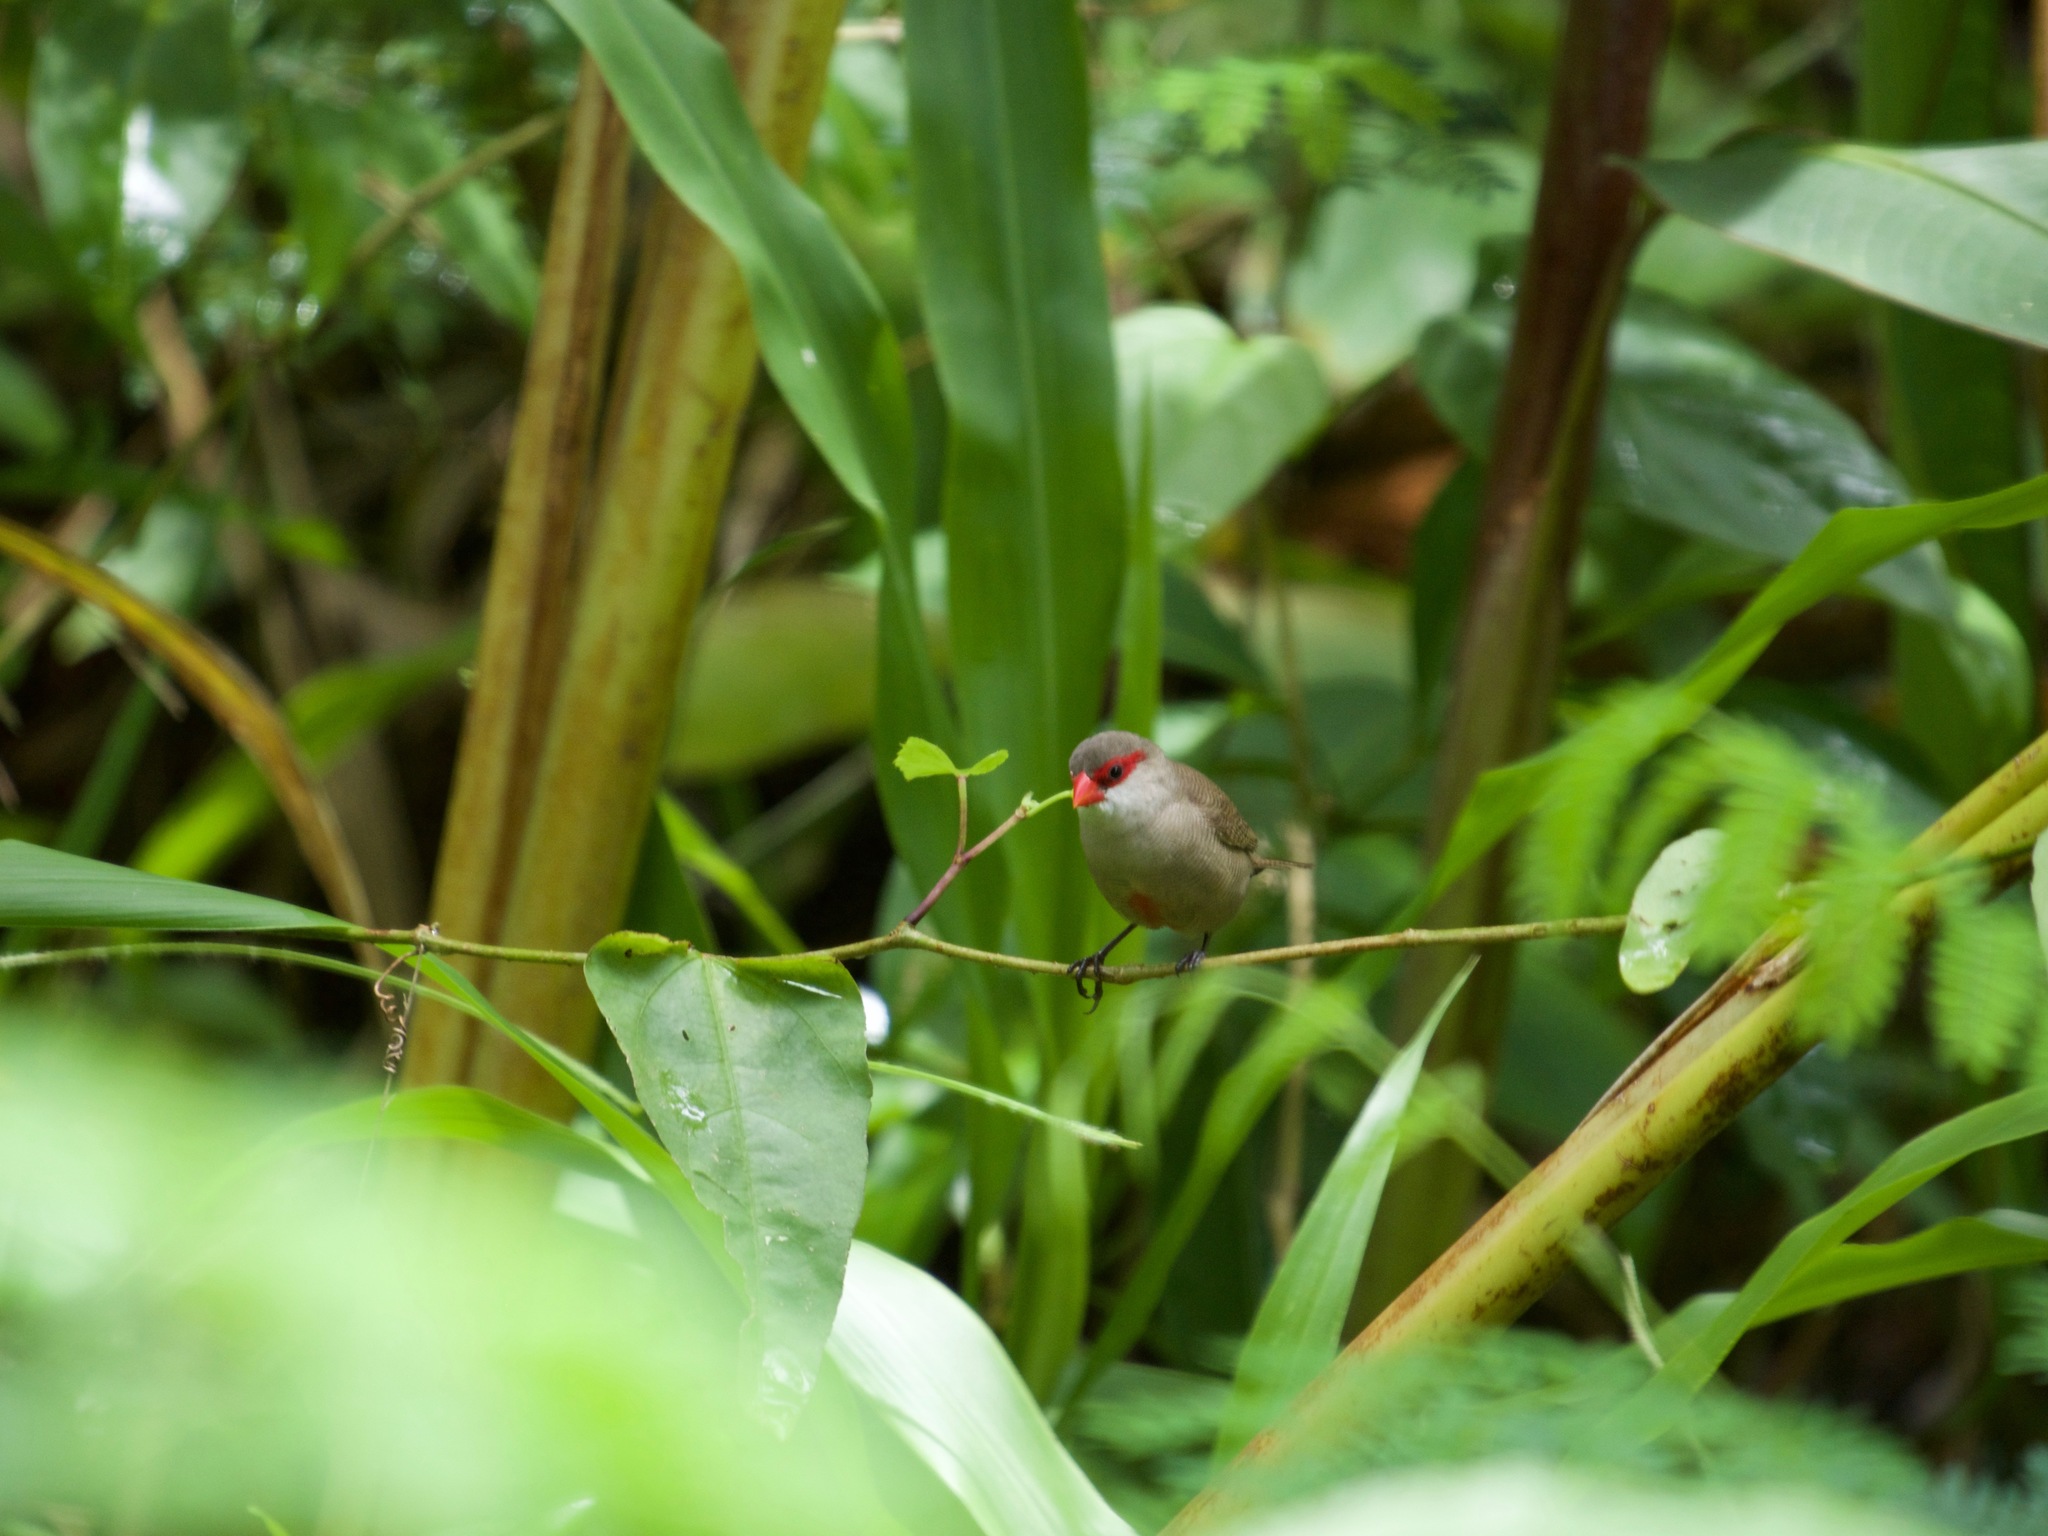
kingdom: Animalia
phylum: Chordata
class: Aves
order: Passeriformes
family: Estrildidae
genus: Estrilda
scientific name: Estrilda astrild
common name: Common waxbill
